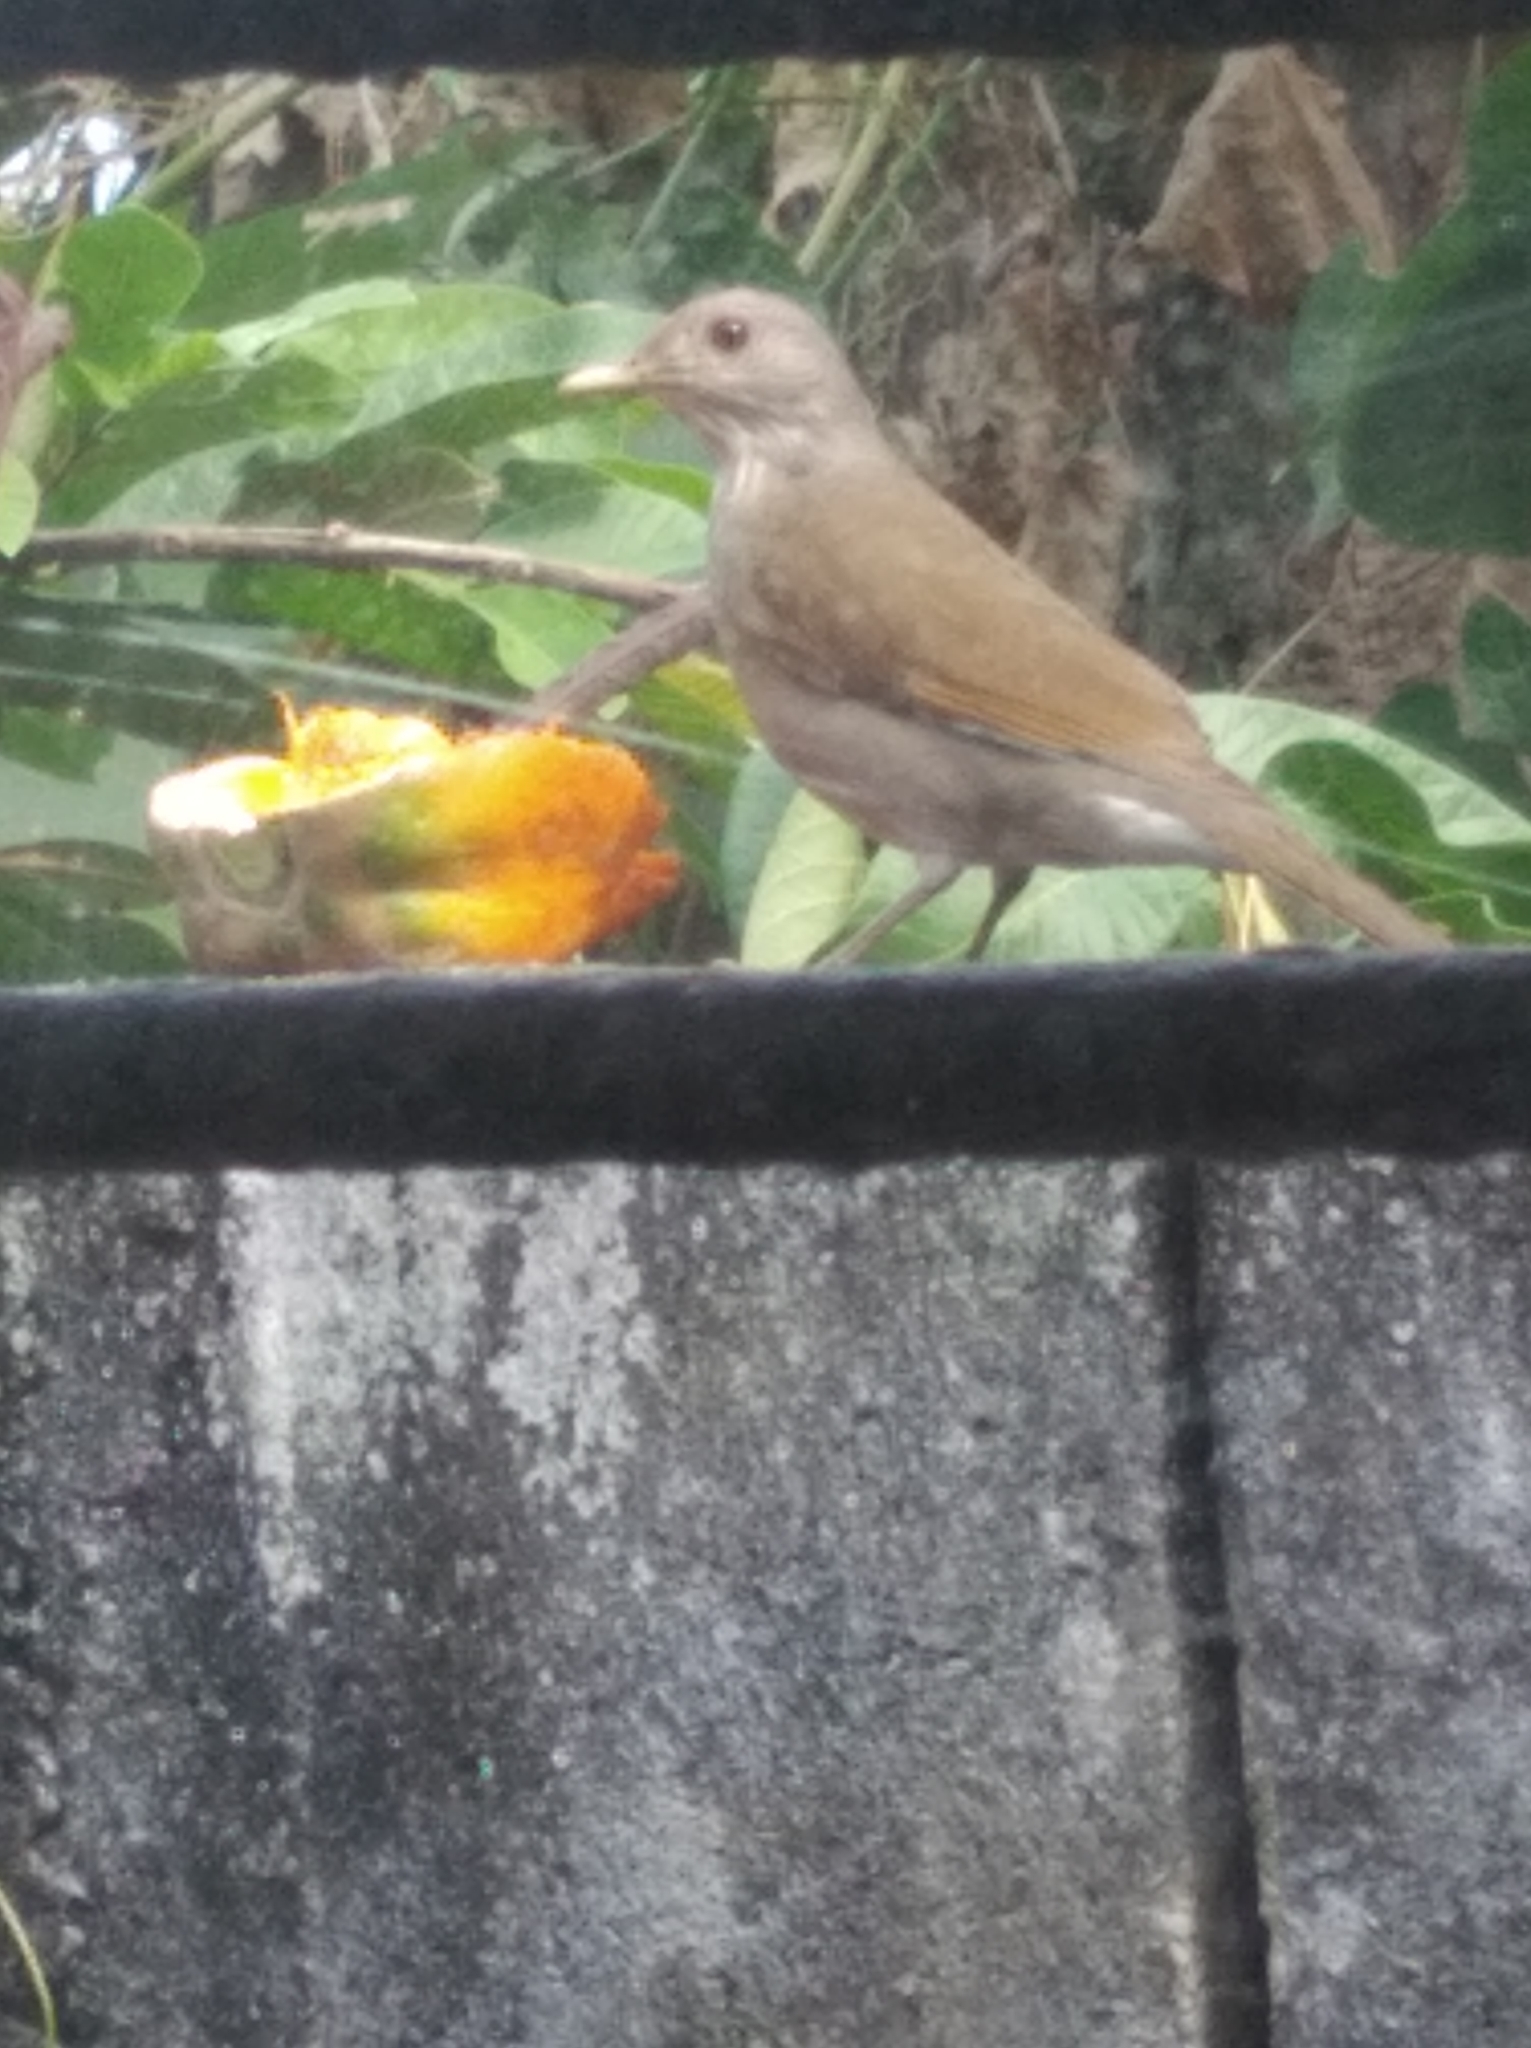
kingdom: Animalia
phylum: Chordata
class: Aves
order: Passeriformes
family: Turdidae
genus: Turdus
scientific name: Turdus leucomelas
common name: Pale-breasted thrush
